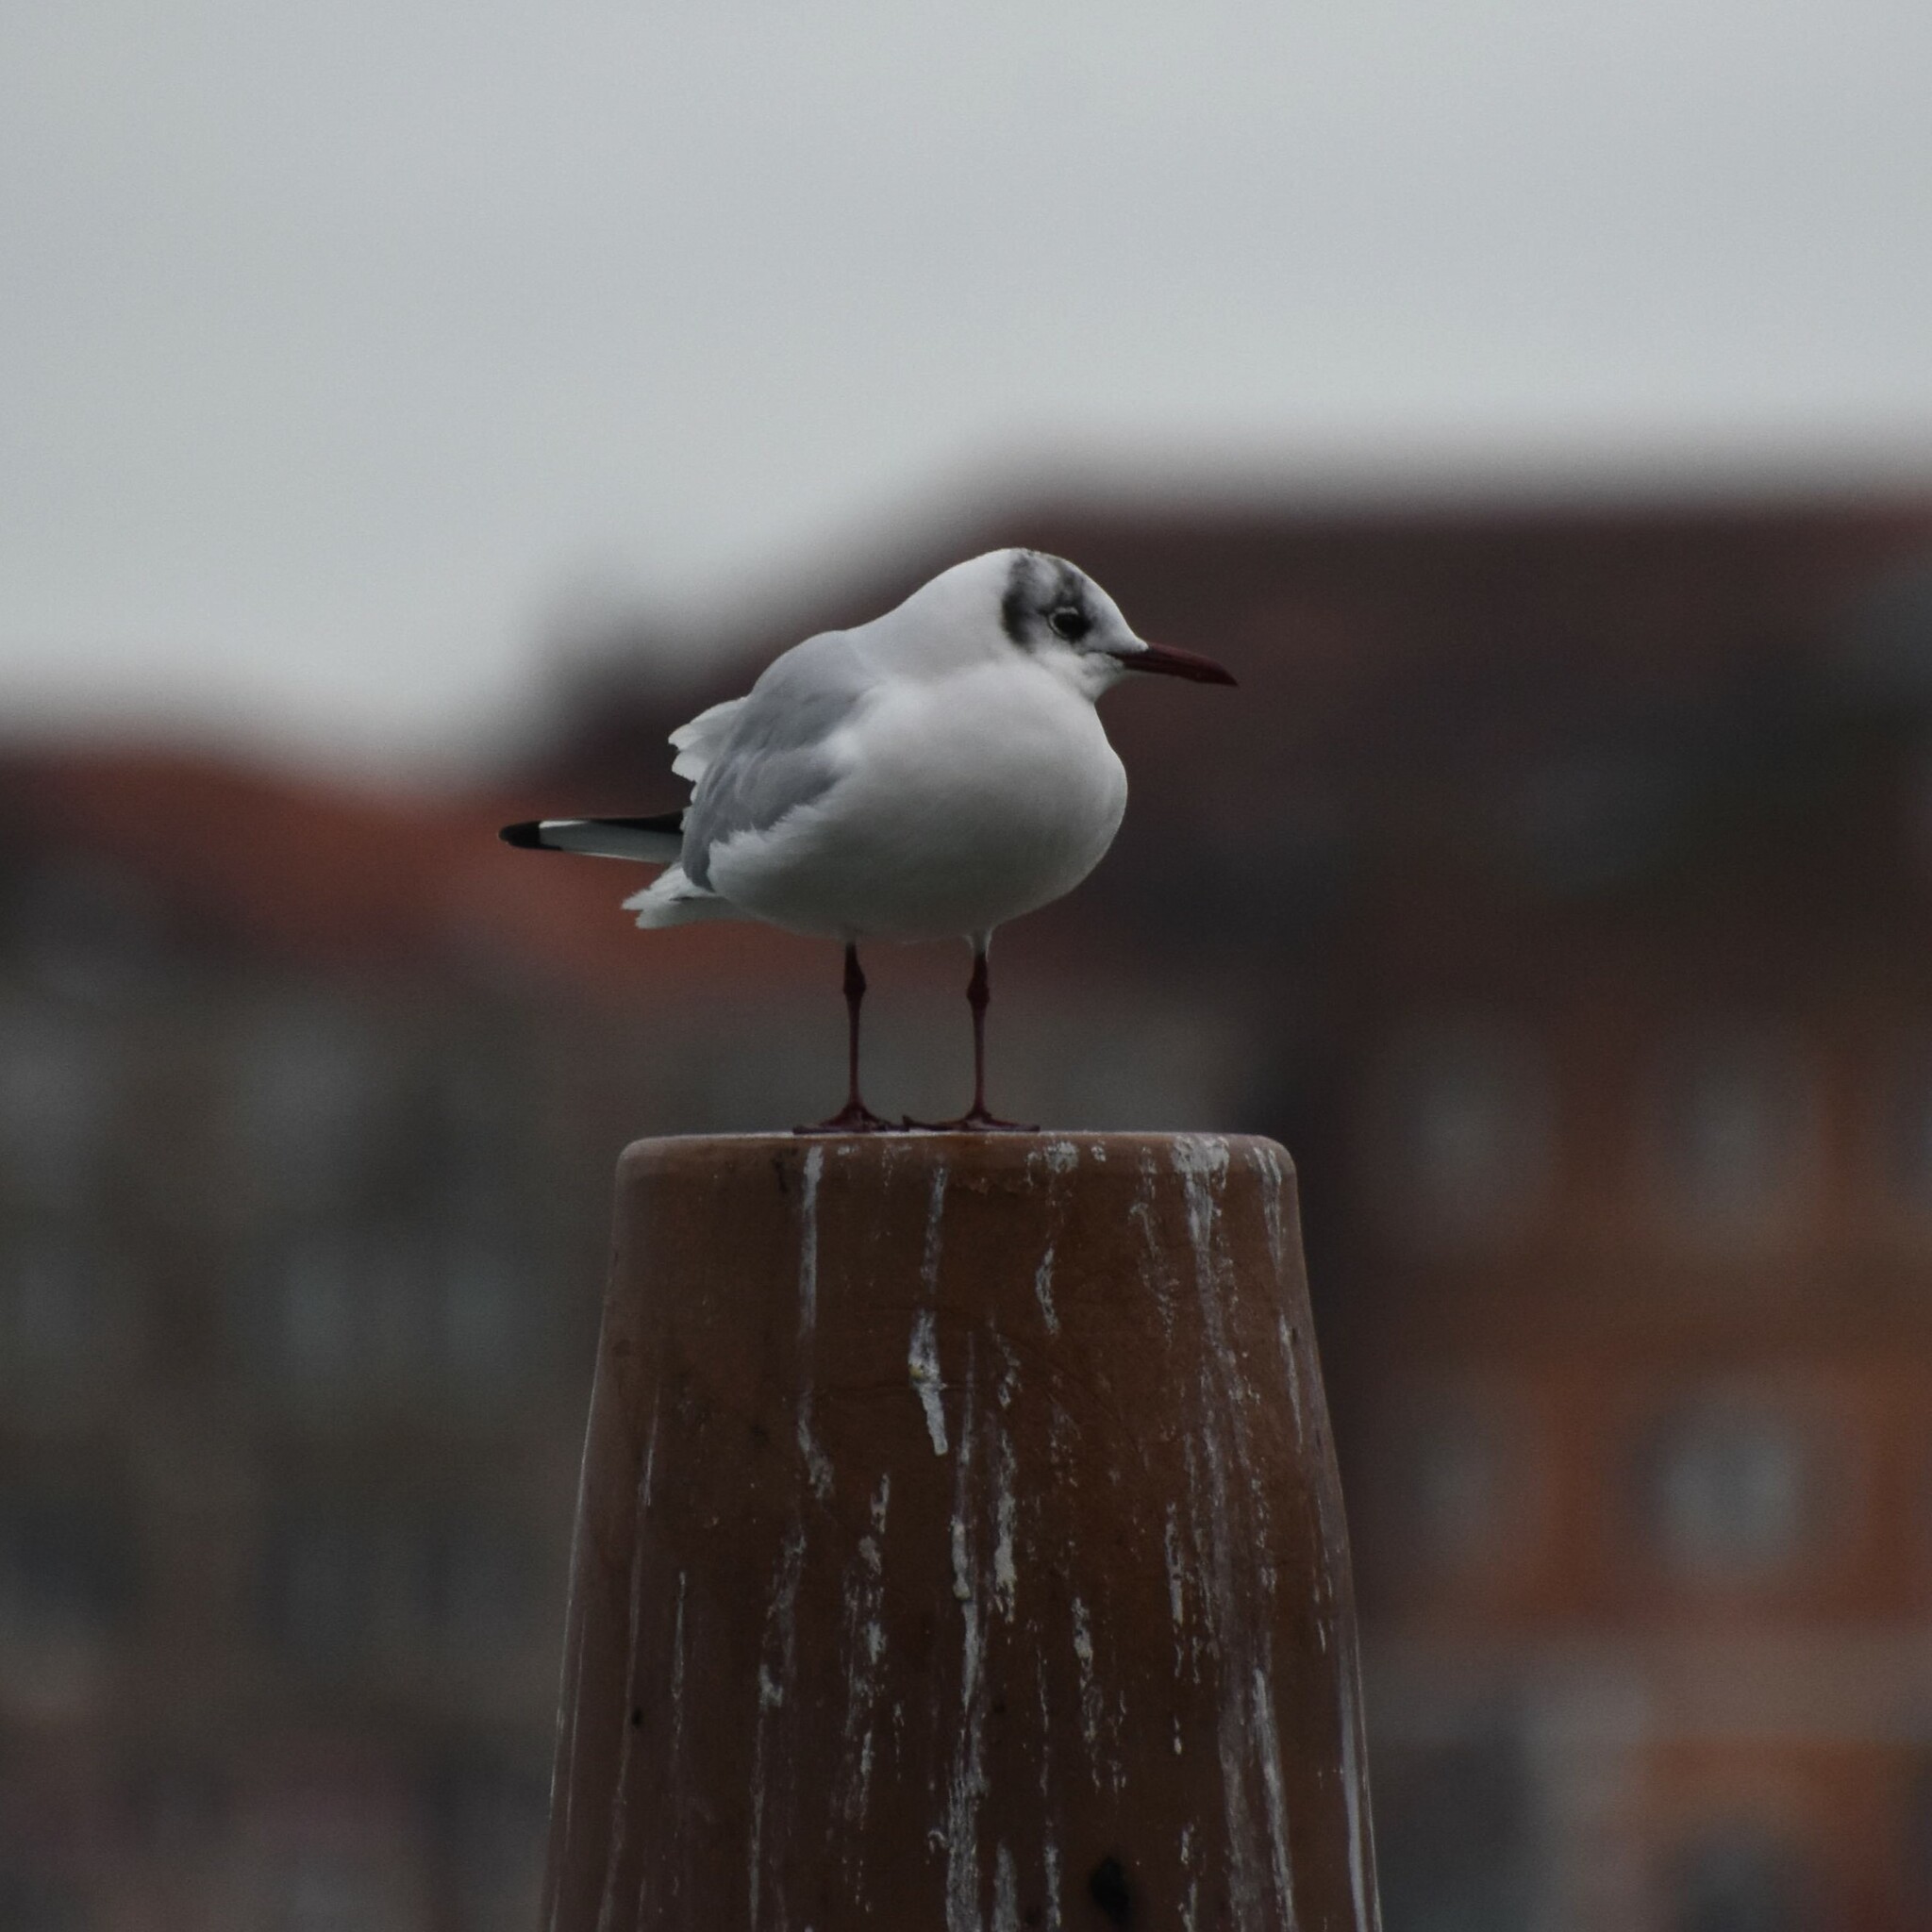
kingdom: Animalia
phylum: Chordata
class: Aves
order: Charadriiformes
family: Laridae
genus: Chroicocephalus
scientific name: Chroicocephalus ridibundus
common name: Black-headed gull
